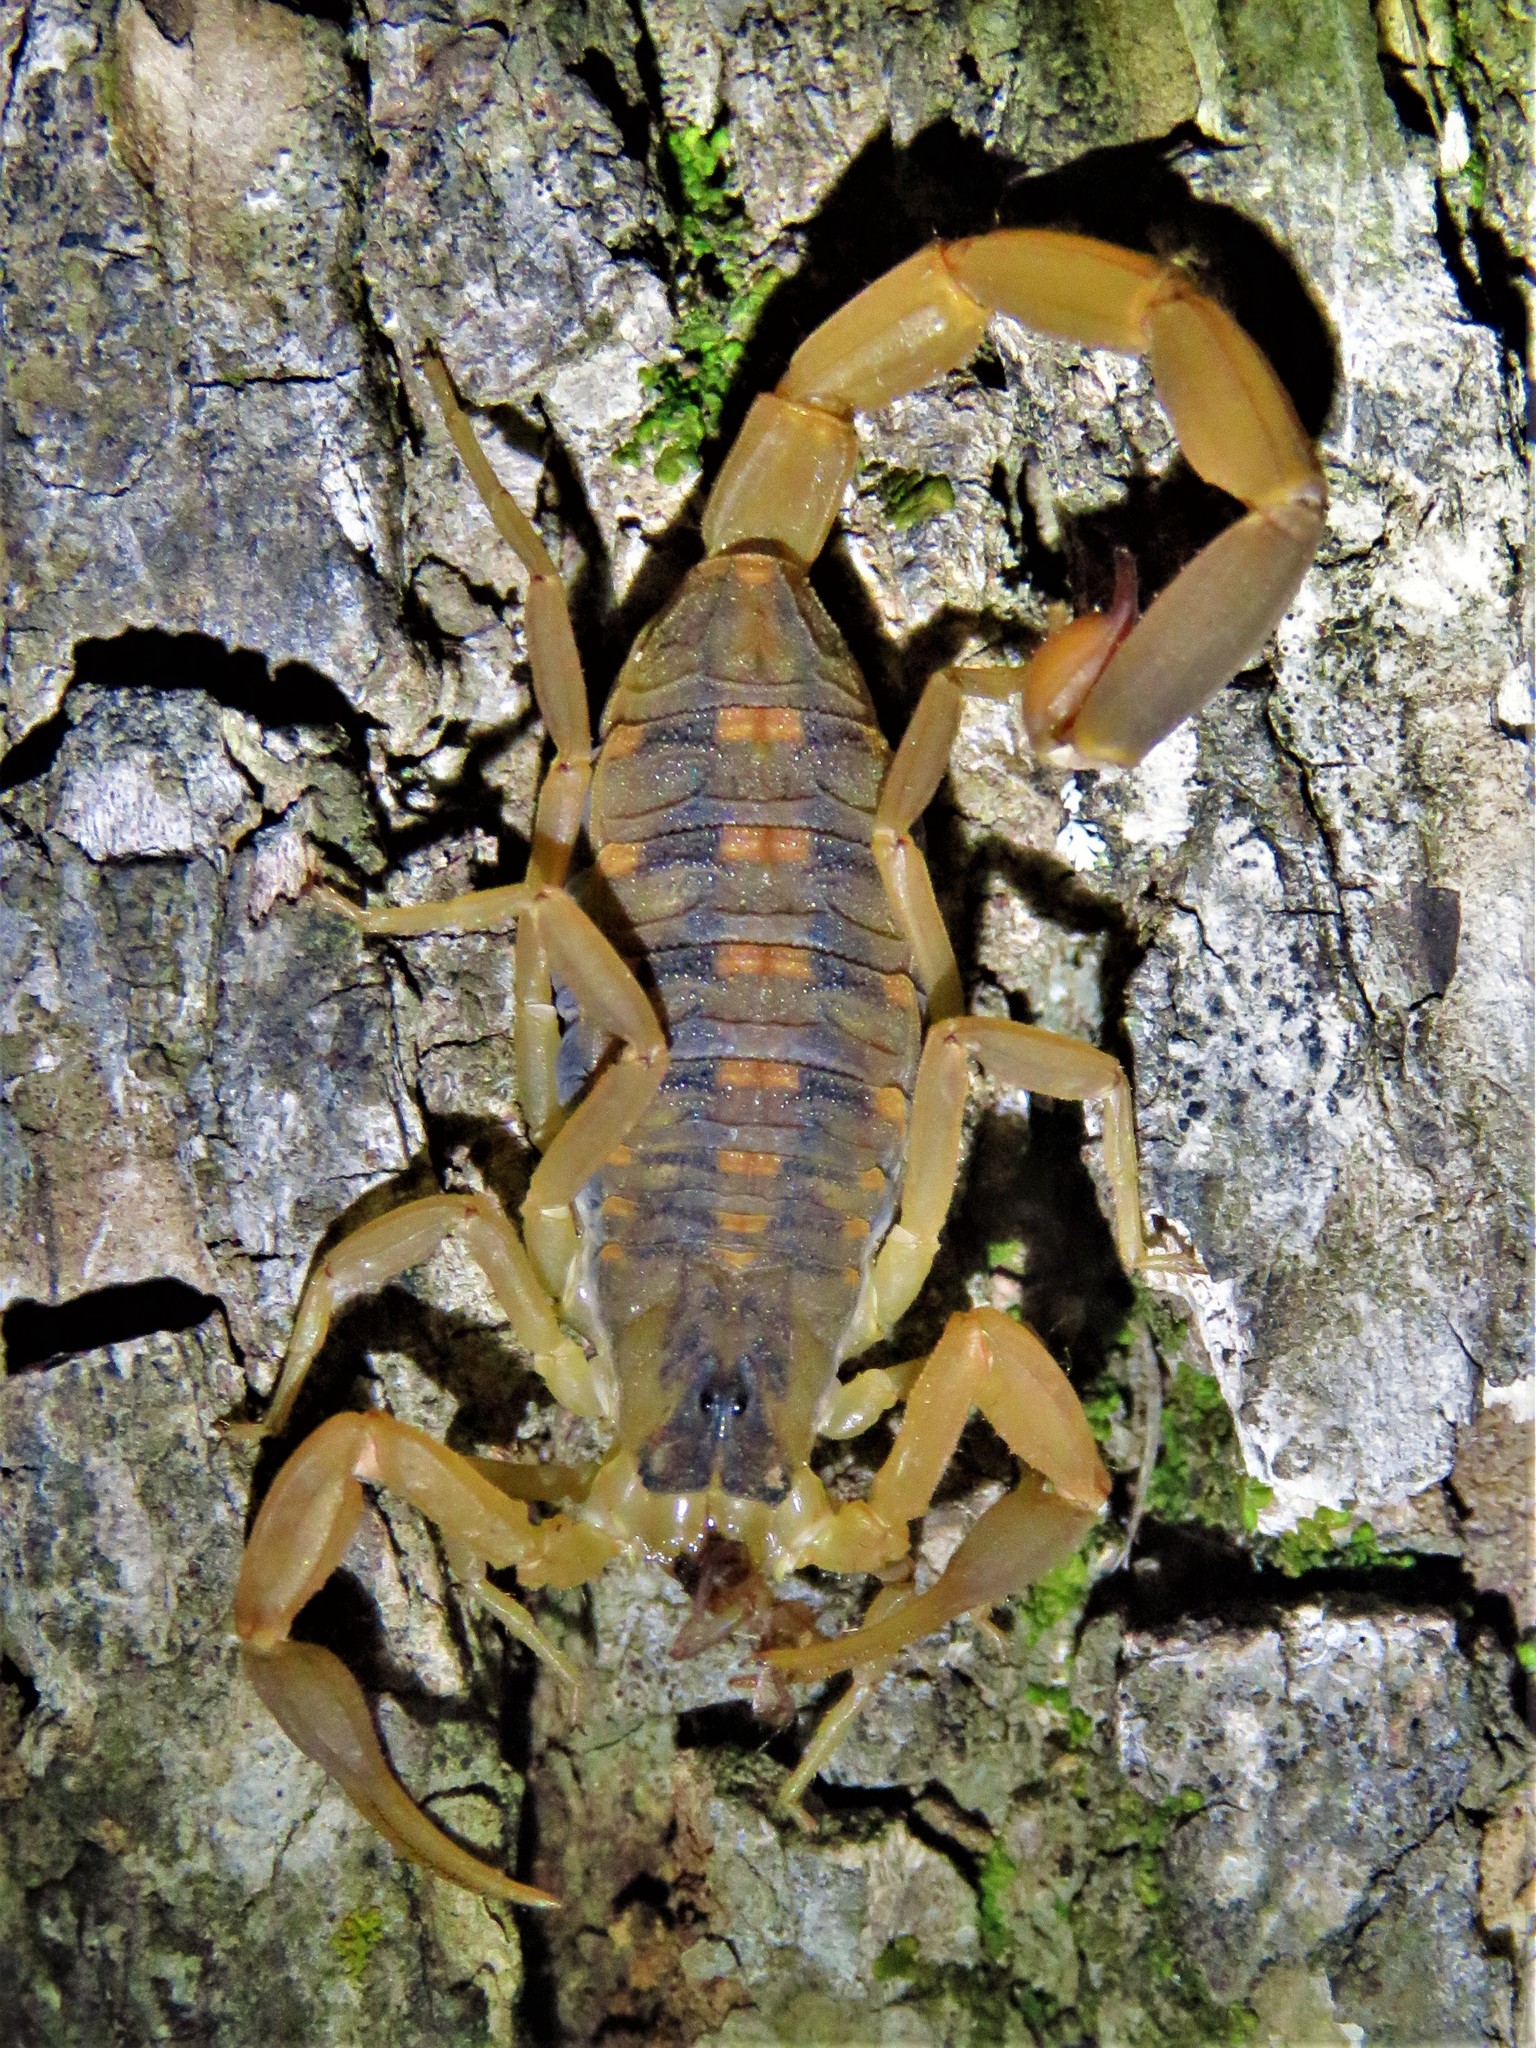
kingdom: Animalia
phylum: Arthropoda
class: Arachnida
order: Scorpiones
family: Buthidae
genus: Centruroides
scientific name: Centruroides vittatus
